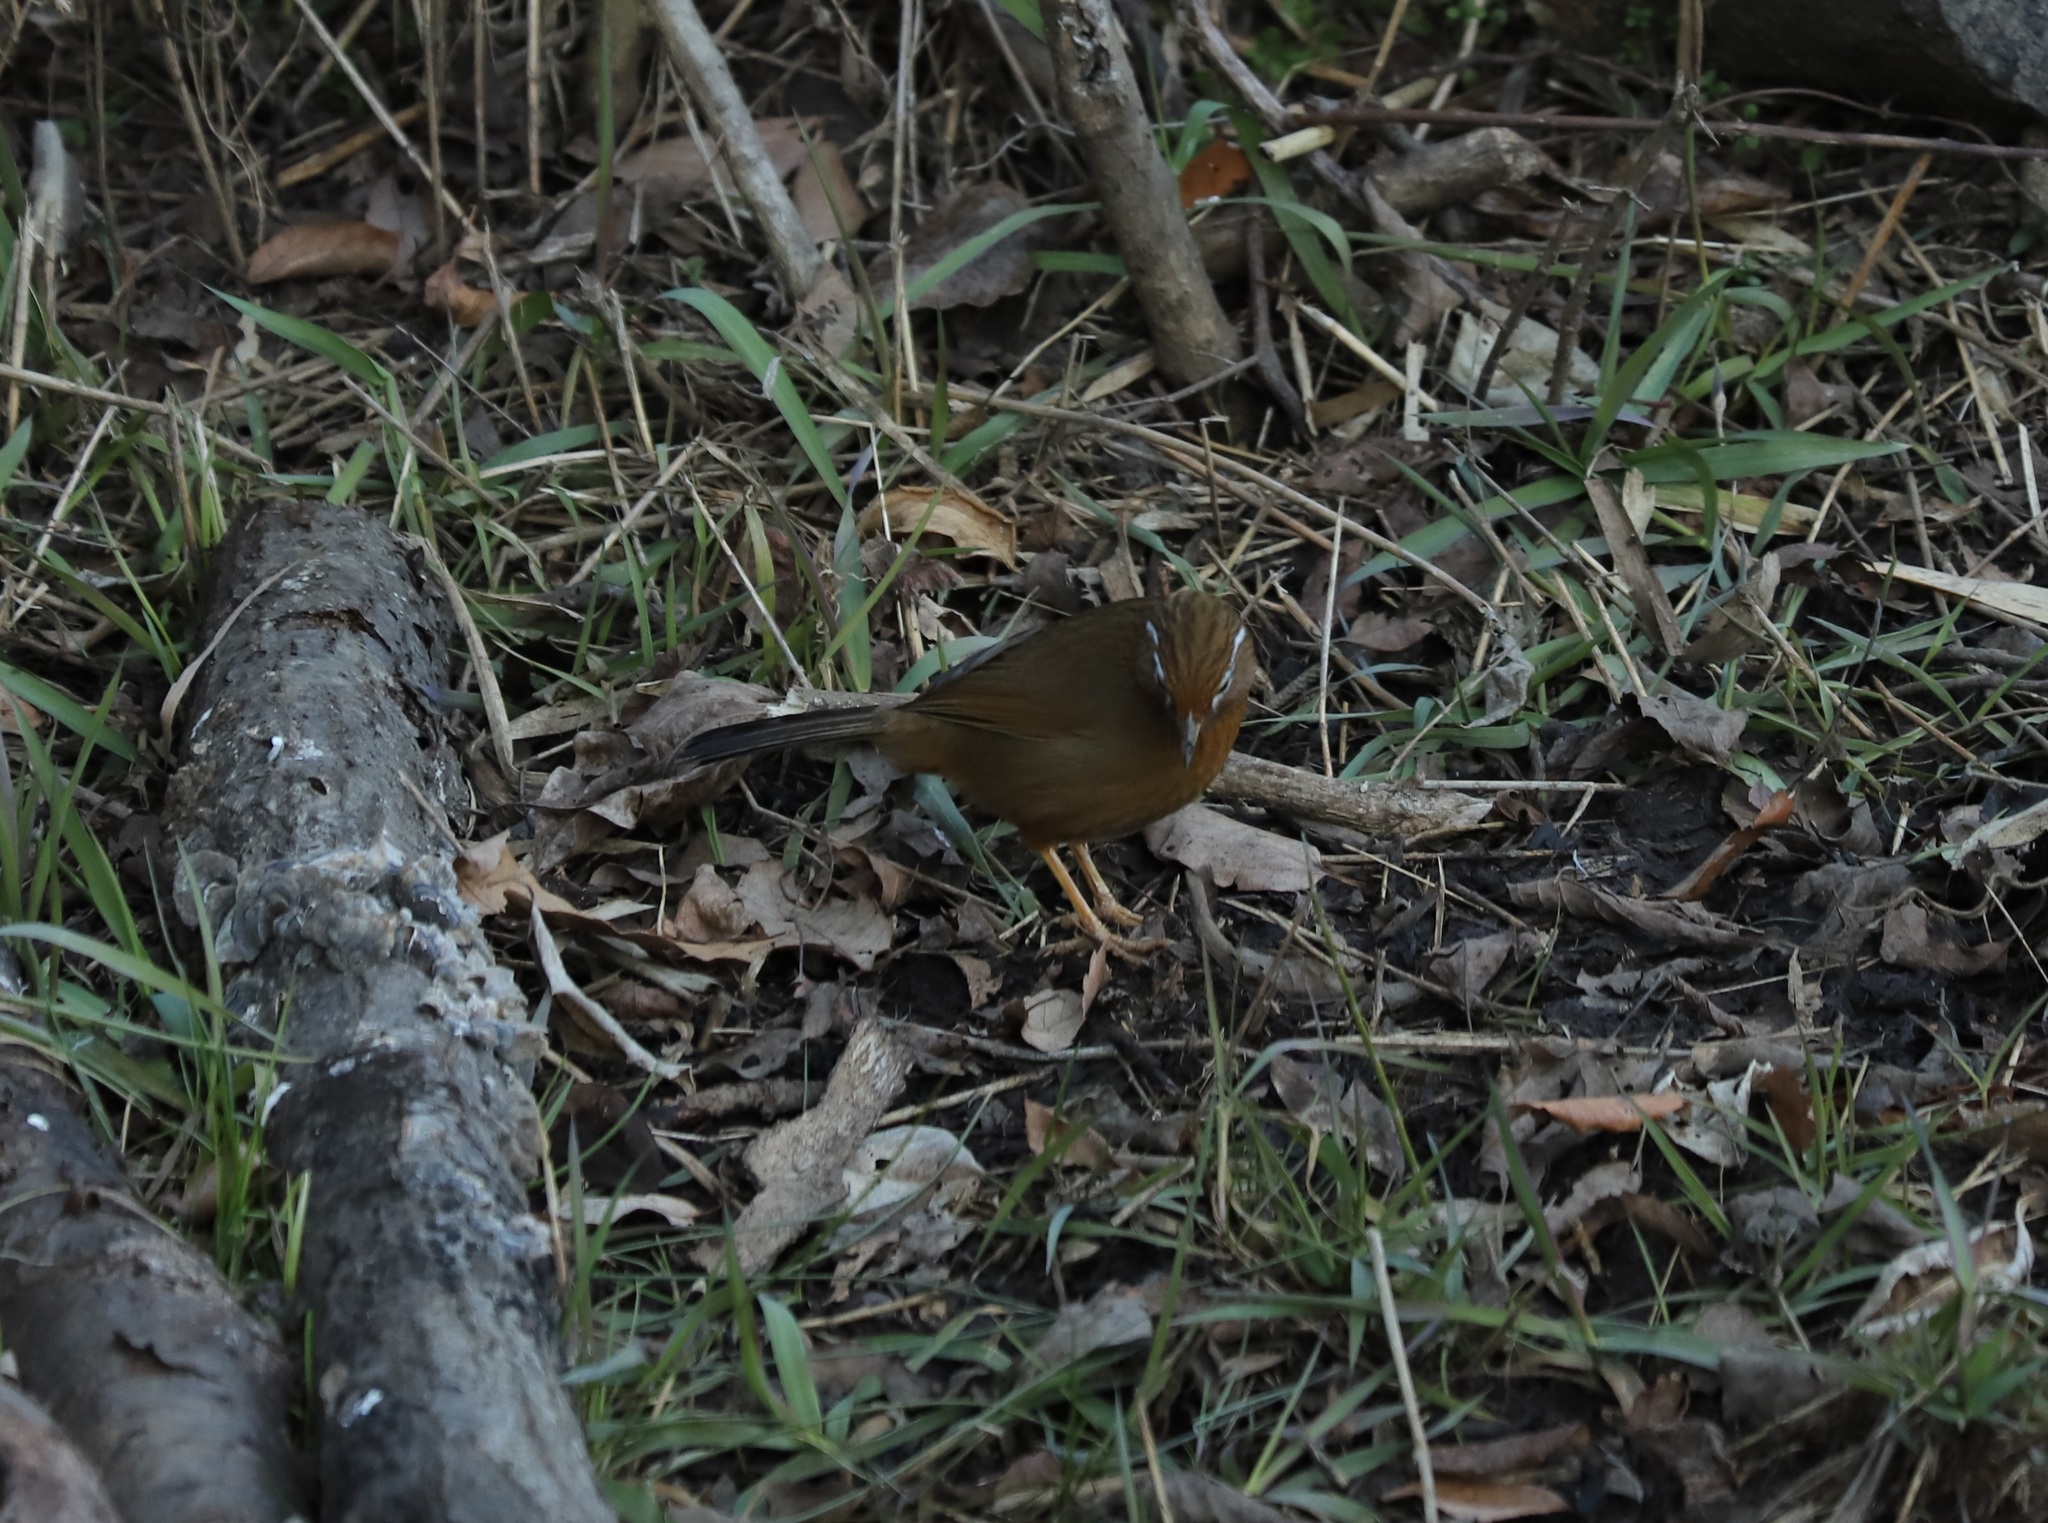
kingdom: Animalia
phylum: Chordata
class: Aves
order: Passeriformes
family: Leiothrichidae
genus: Garrulax
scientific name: Garrulax canorus
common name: Chinese hwamei
